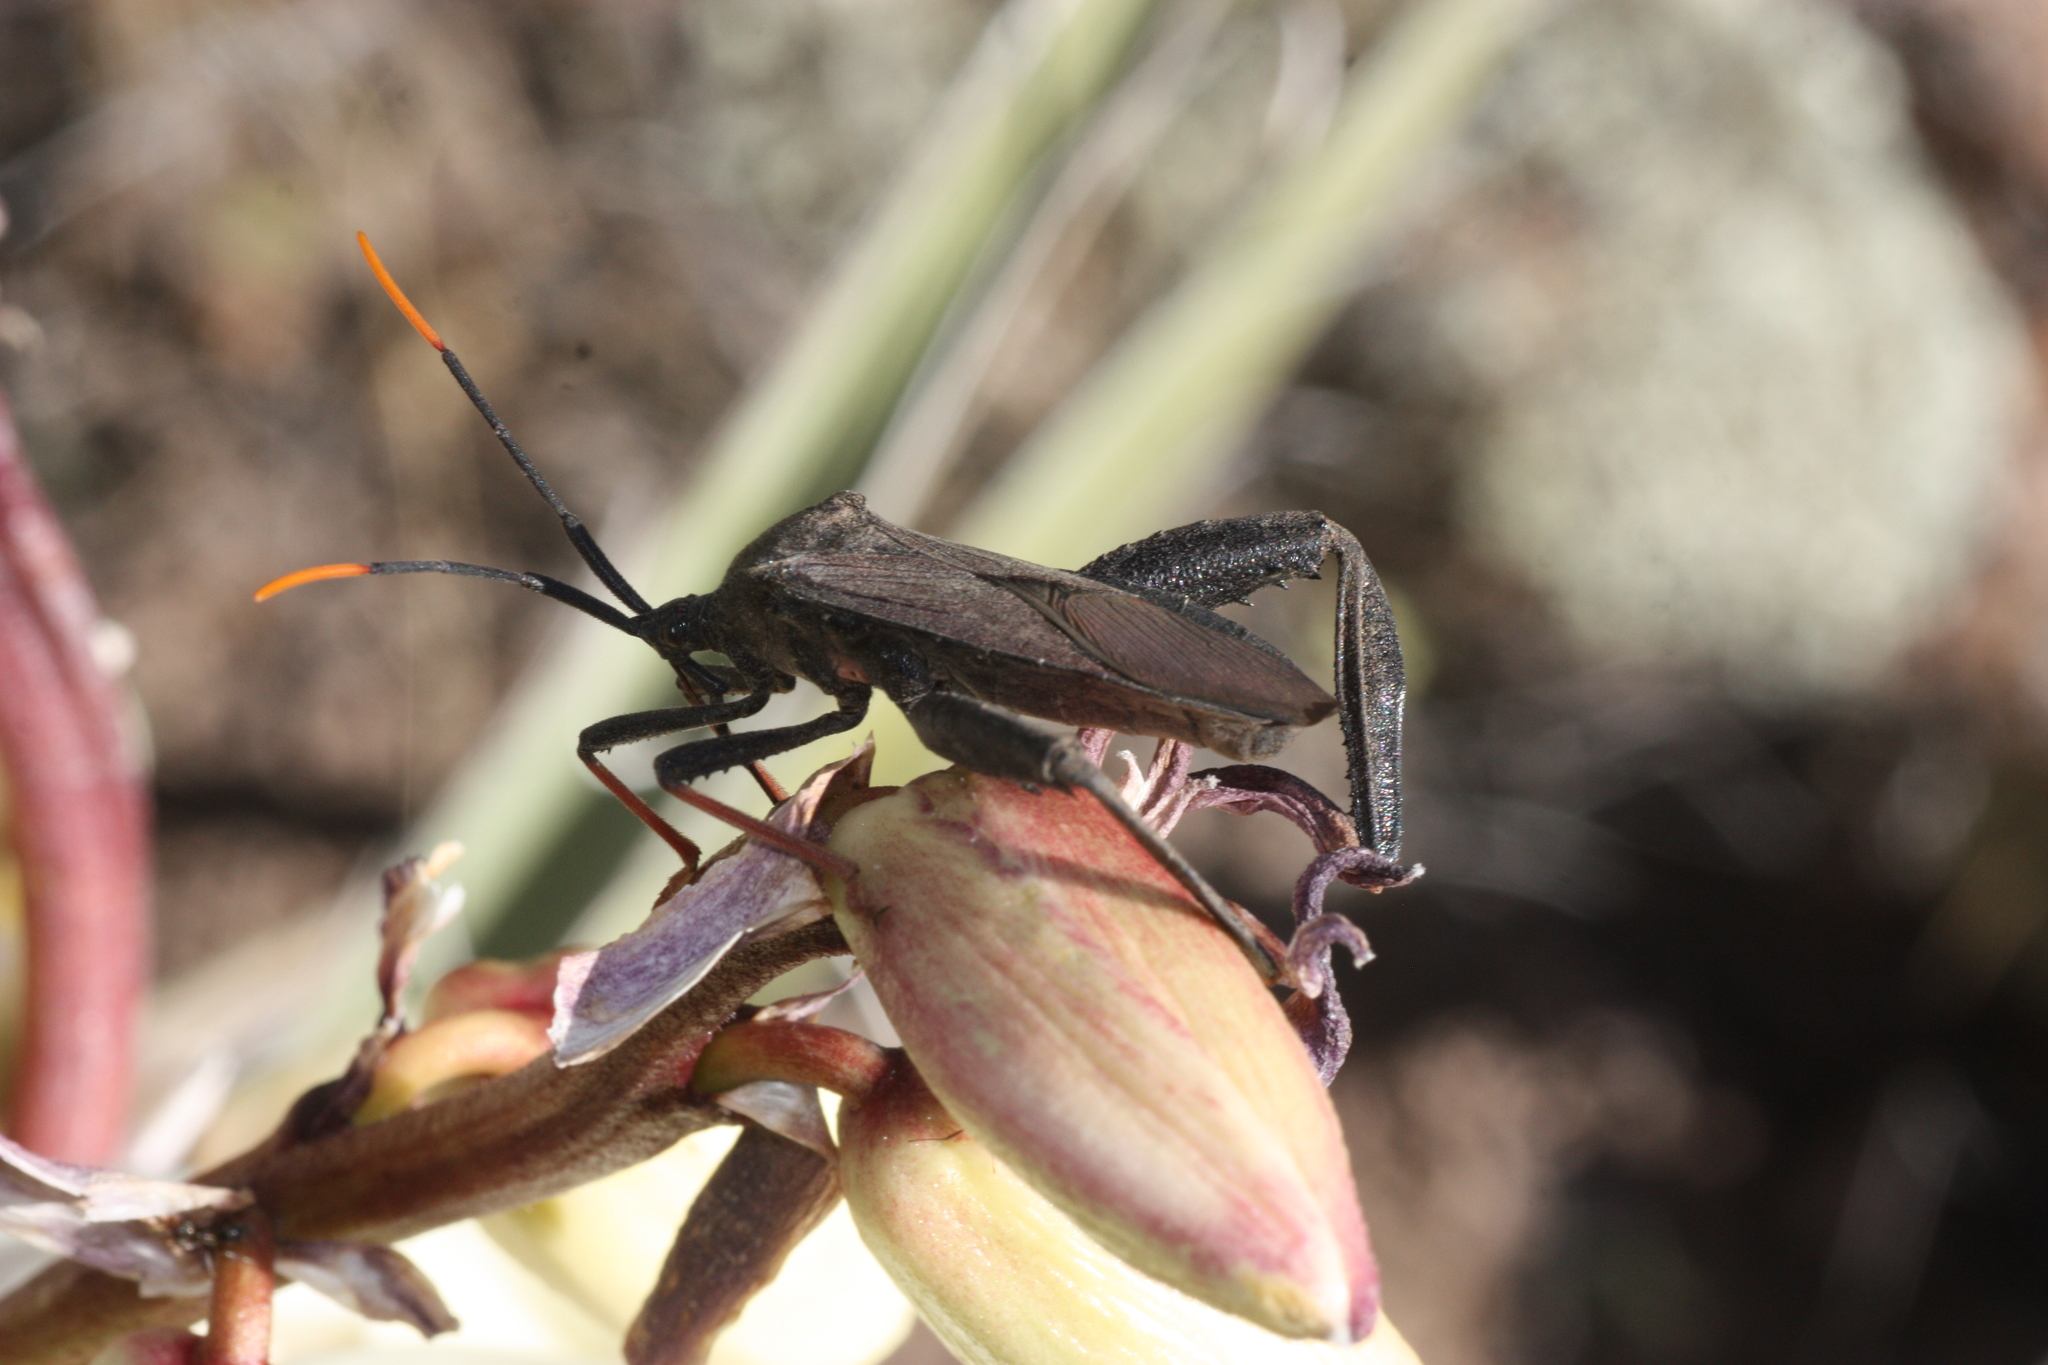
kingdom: Animalia
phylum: Arthropoda
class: Insecta
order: Hemiptera
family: Coreidae
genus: Acanthocephala
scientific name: Acanthocephala thomasi
